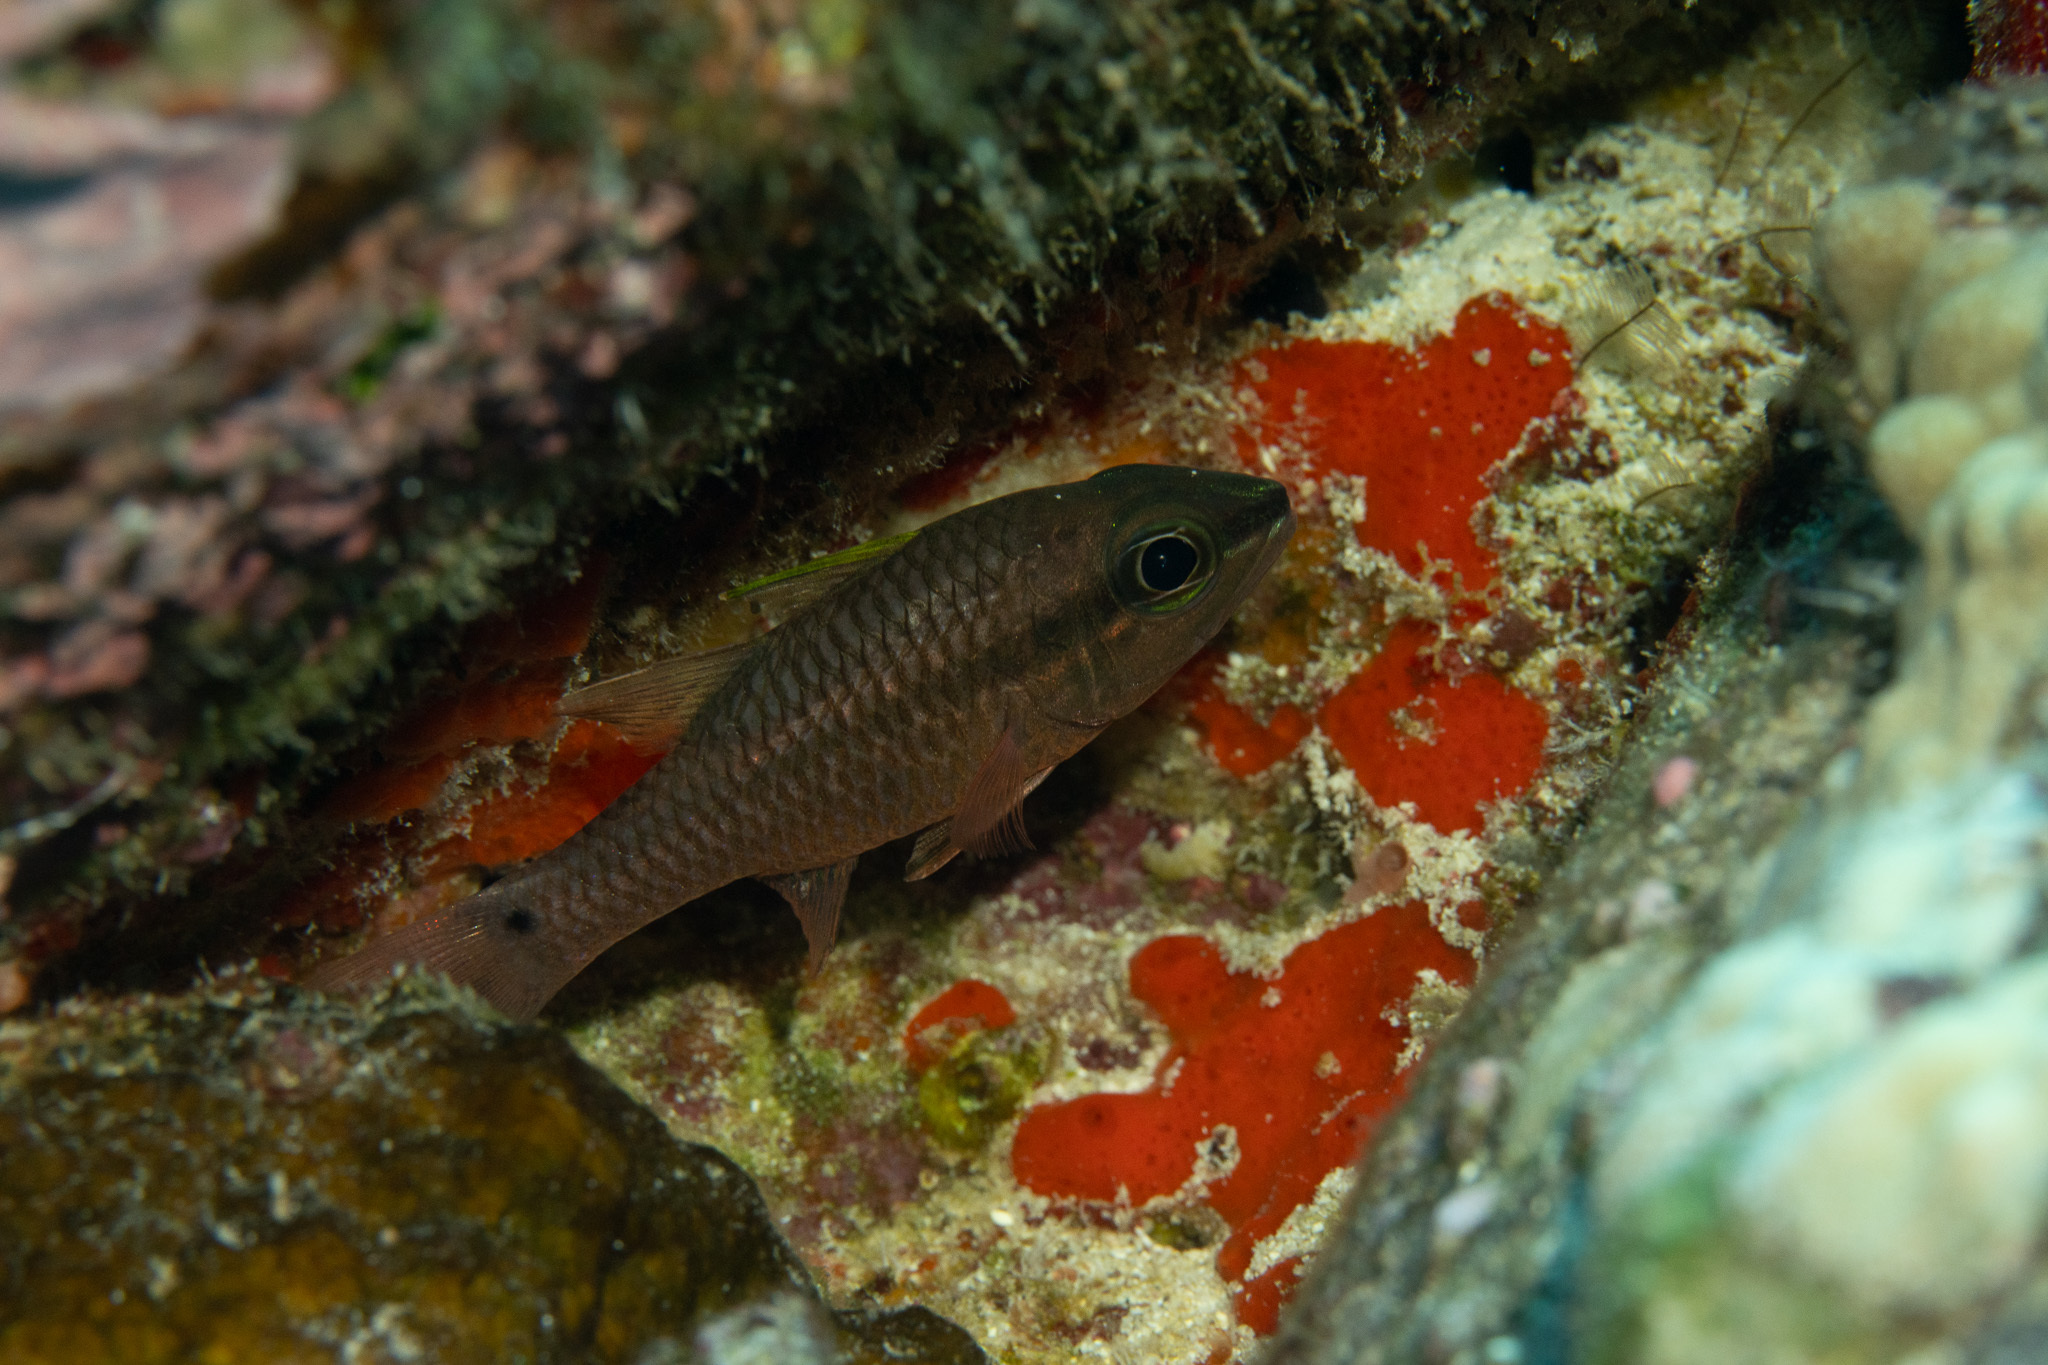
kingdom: Animalia
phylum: Chordata
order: Perciformes
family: Apogonidae
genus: Pristiapogon
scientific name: Pristiapogon kallopterus
